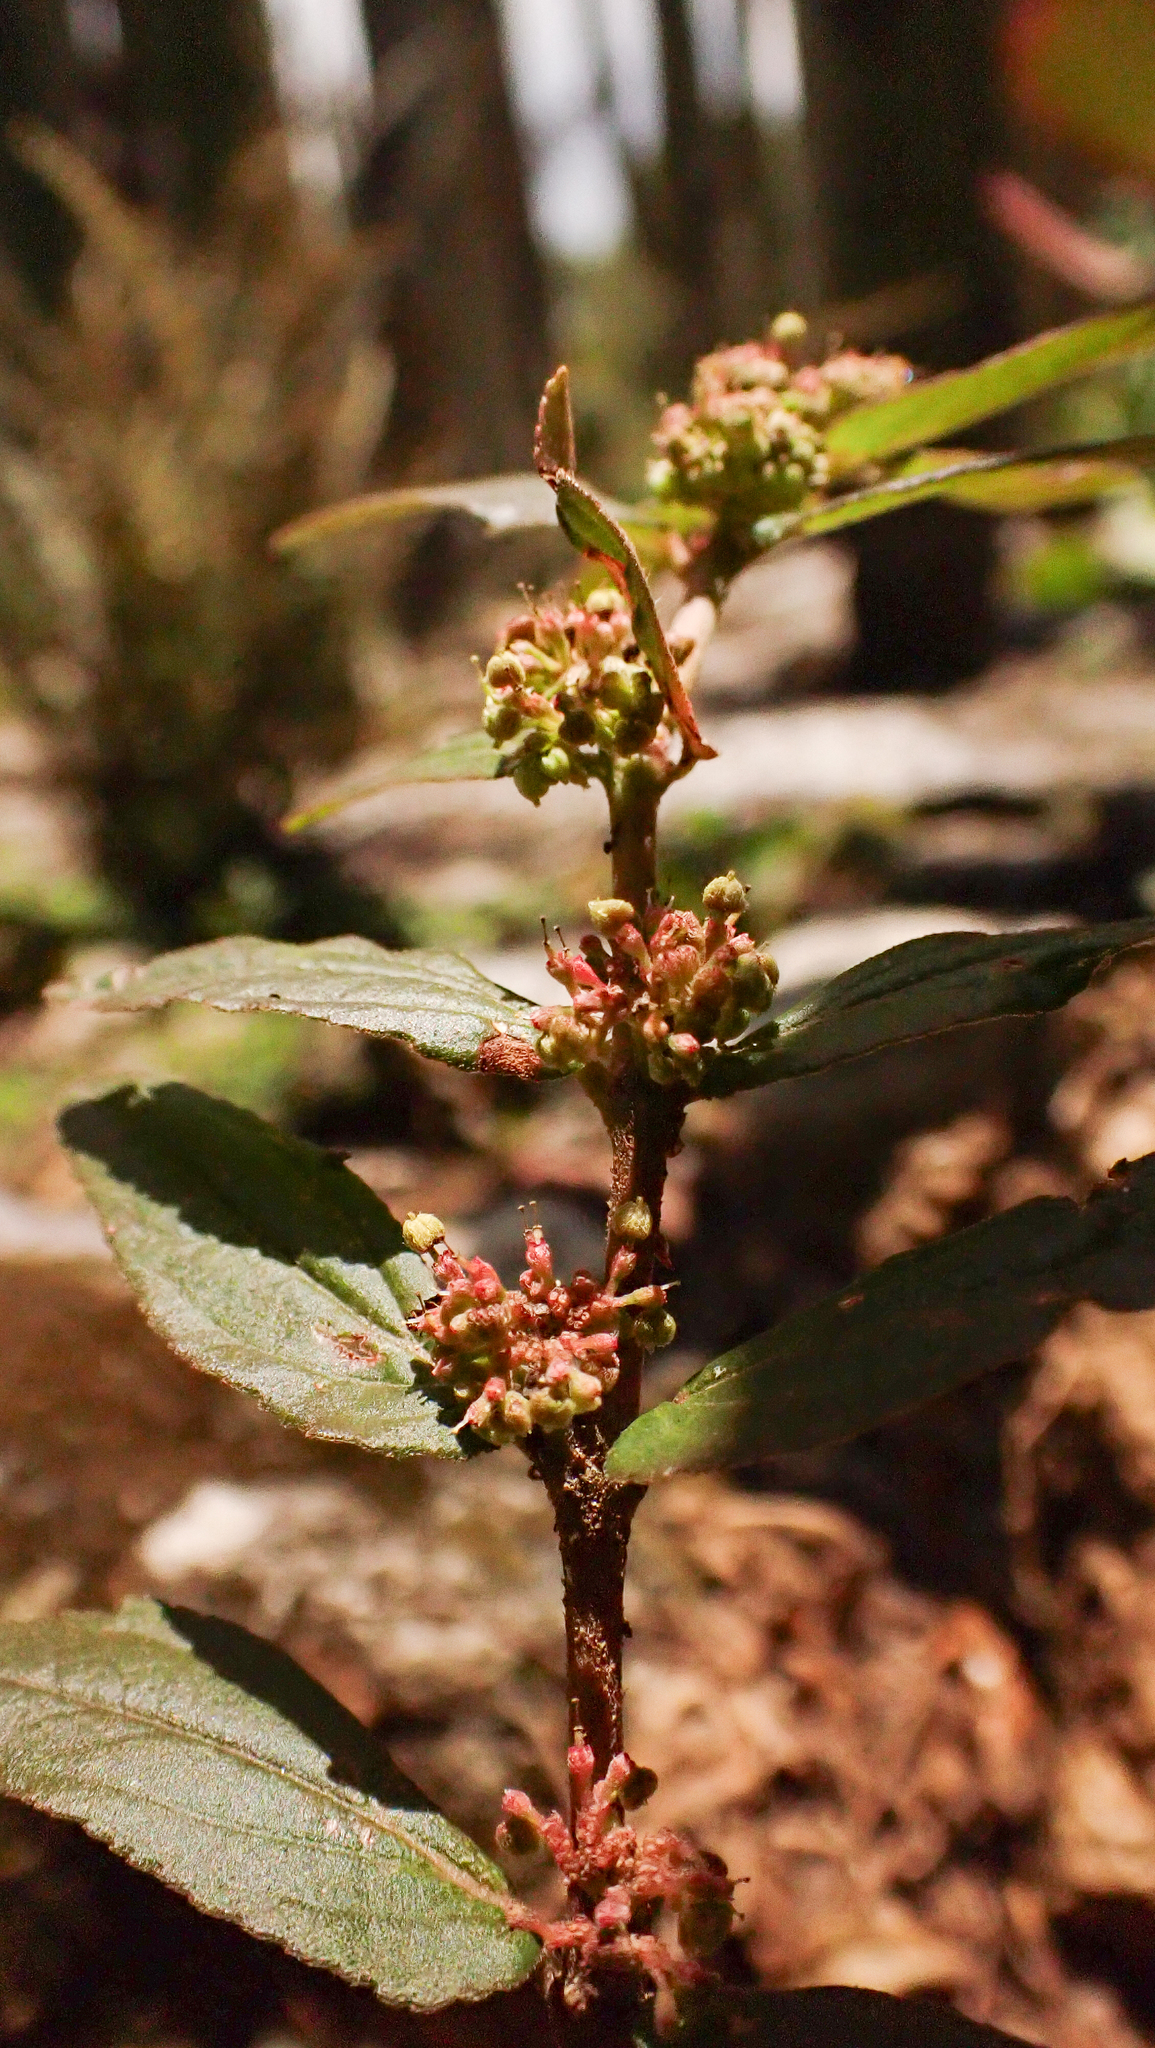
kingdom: Plantae
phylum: Tracheophyta
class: Magnoliopsida
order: Malpighiales
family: Euphorbiaceae
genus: Euphorbia
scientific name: Euphorbia hirta
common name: Pillpod sandmat
